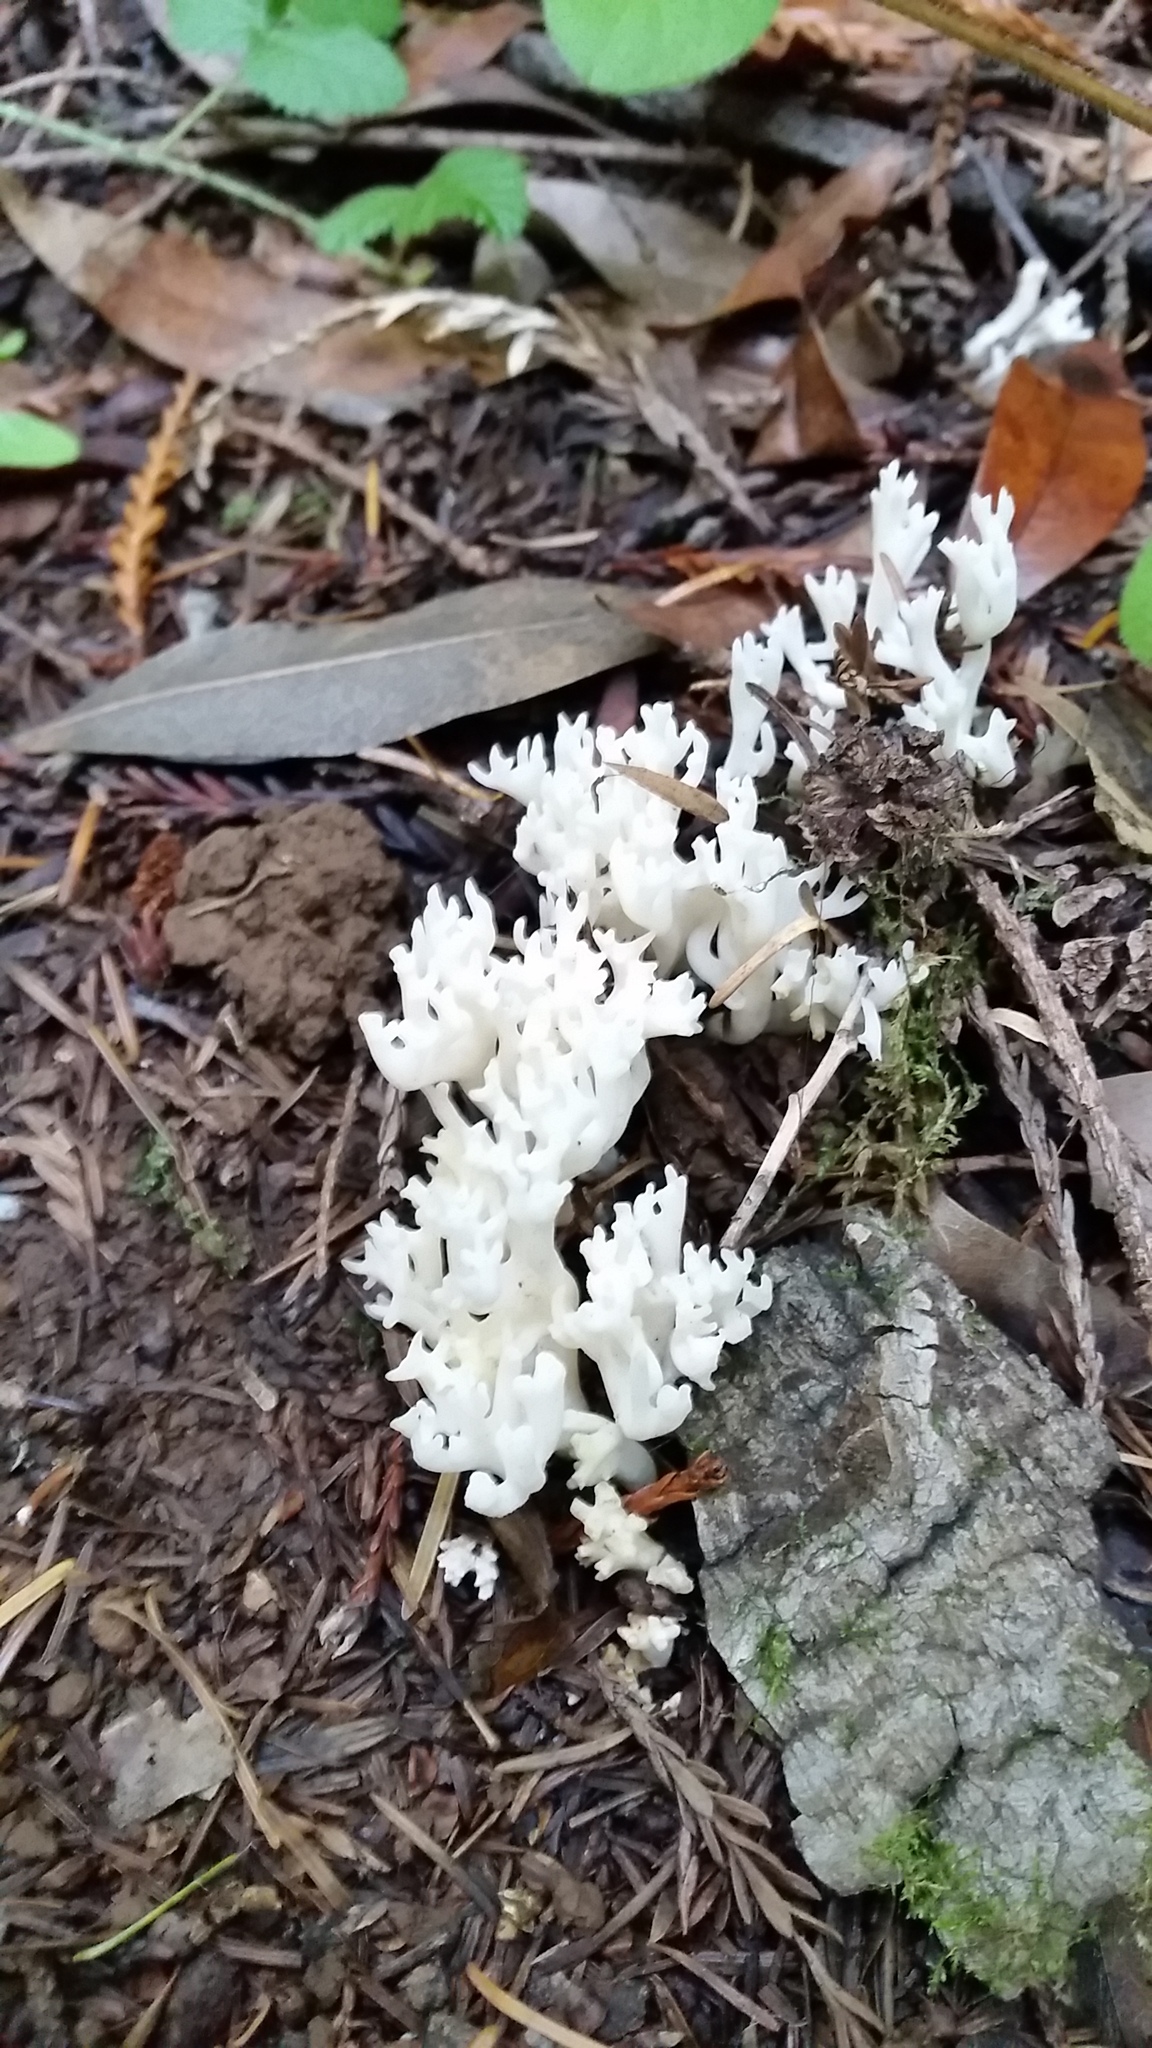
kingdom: Fungi
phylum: Basidiomycota
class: Agaricomycetes
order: Agaricales
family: Clavariaceae
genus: Ramariopsis
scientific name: Ramariopsis kunzei
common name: Ivory coral
